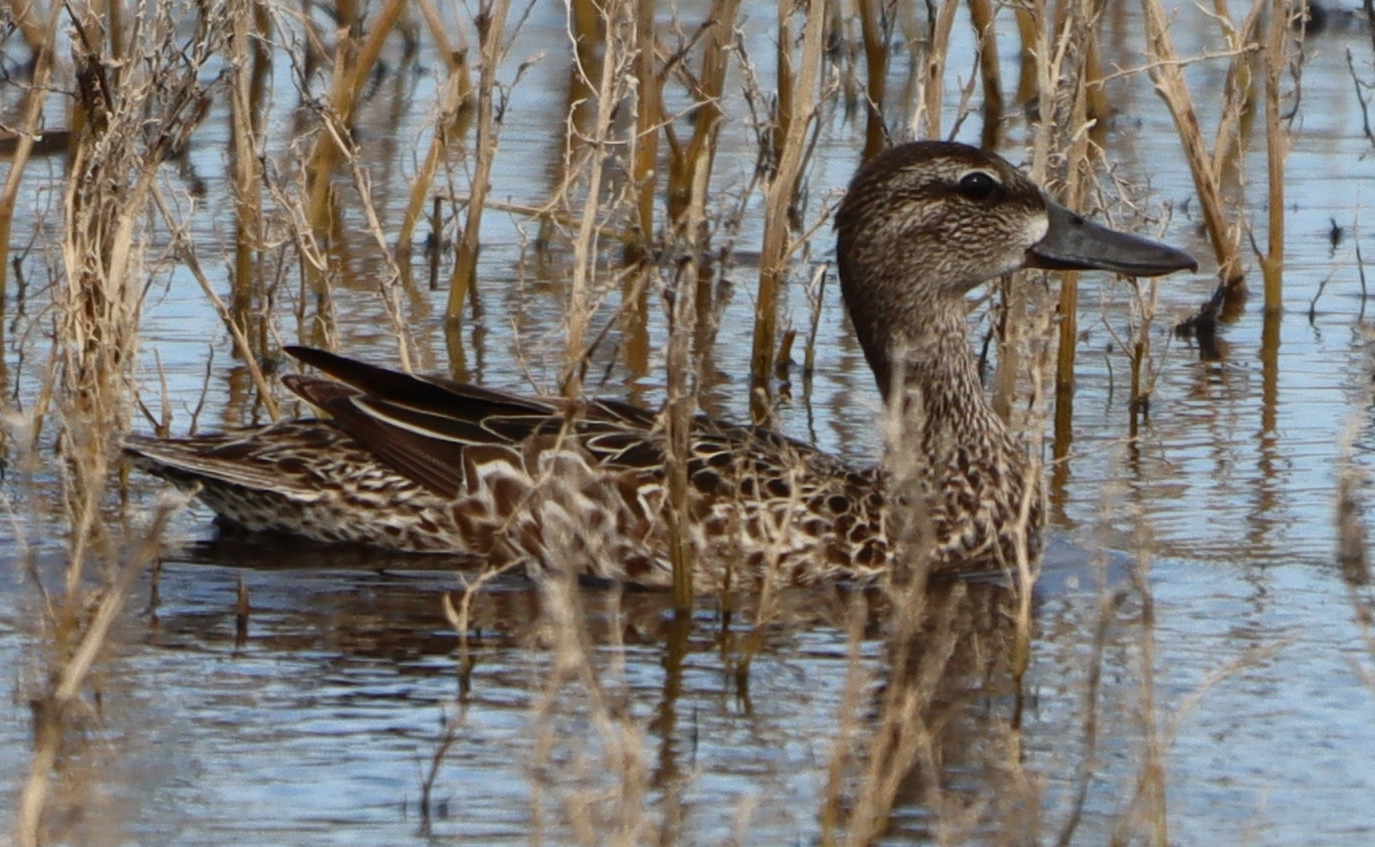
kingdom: Animalia
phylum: Chordata
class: Aves
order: Anseriformes
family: Anatidae
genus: Spatula
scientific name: Spatula discors
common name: Blue-winged teal
